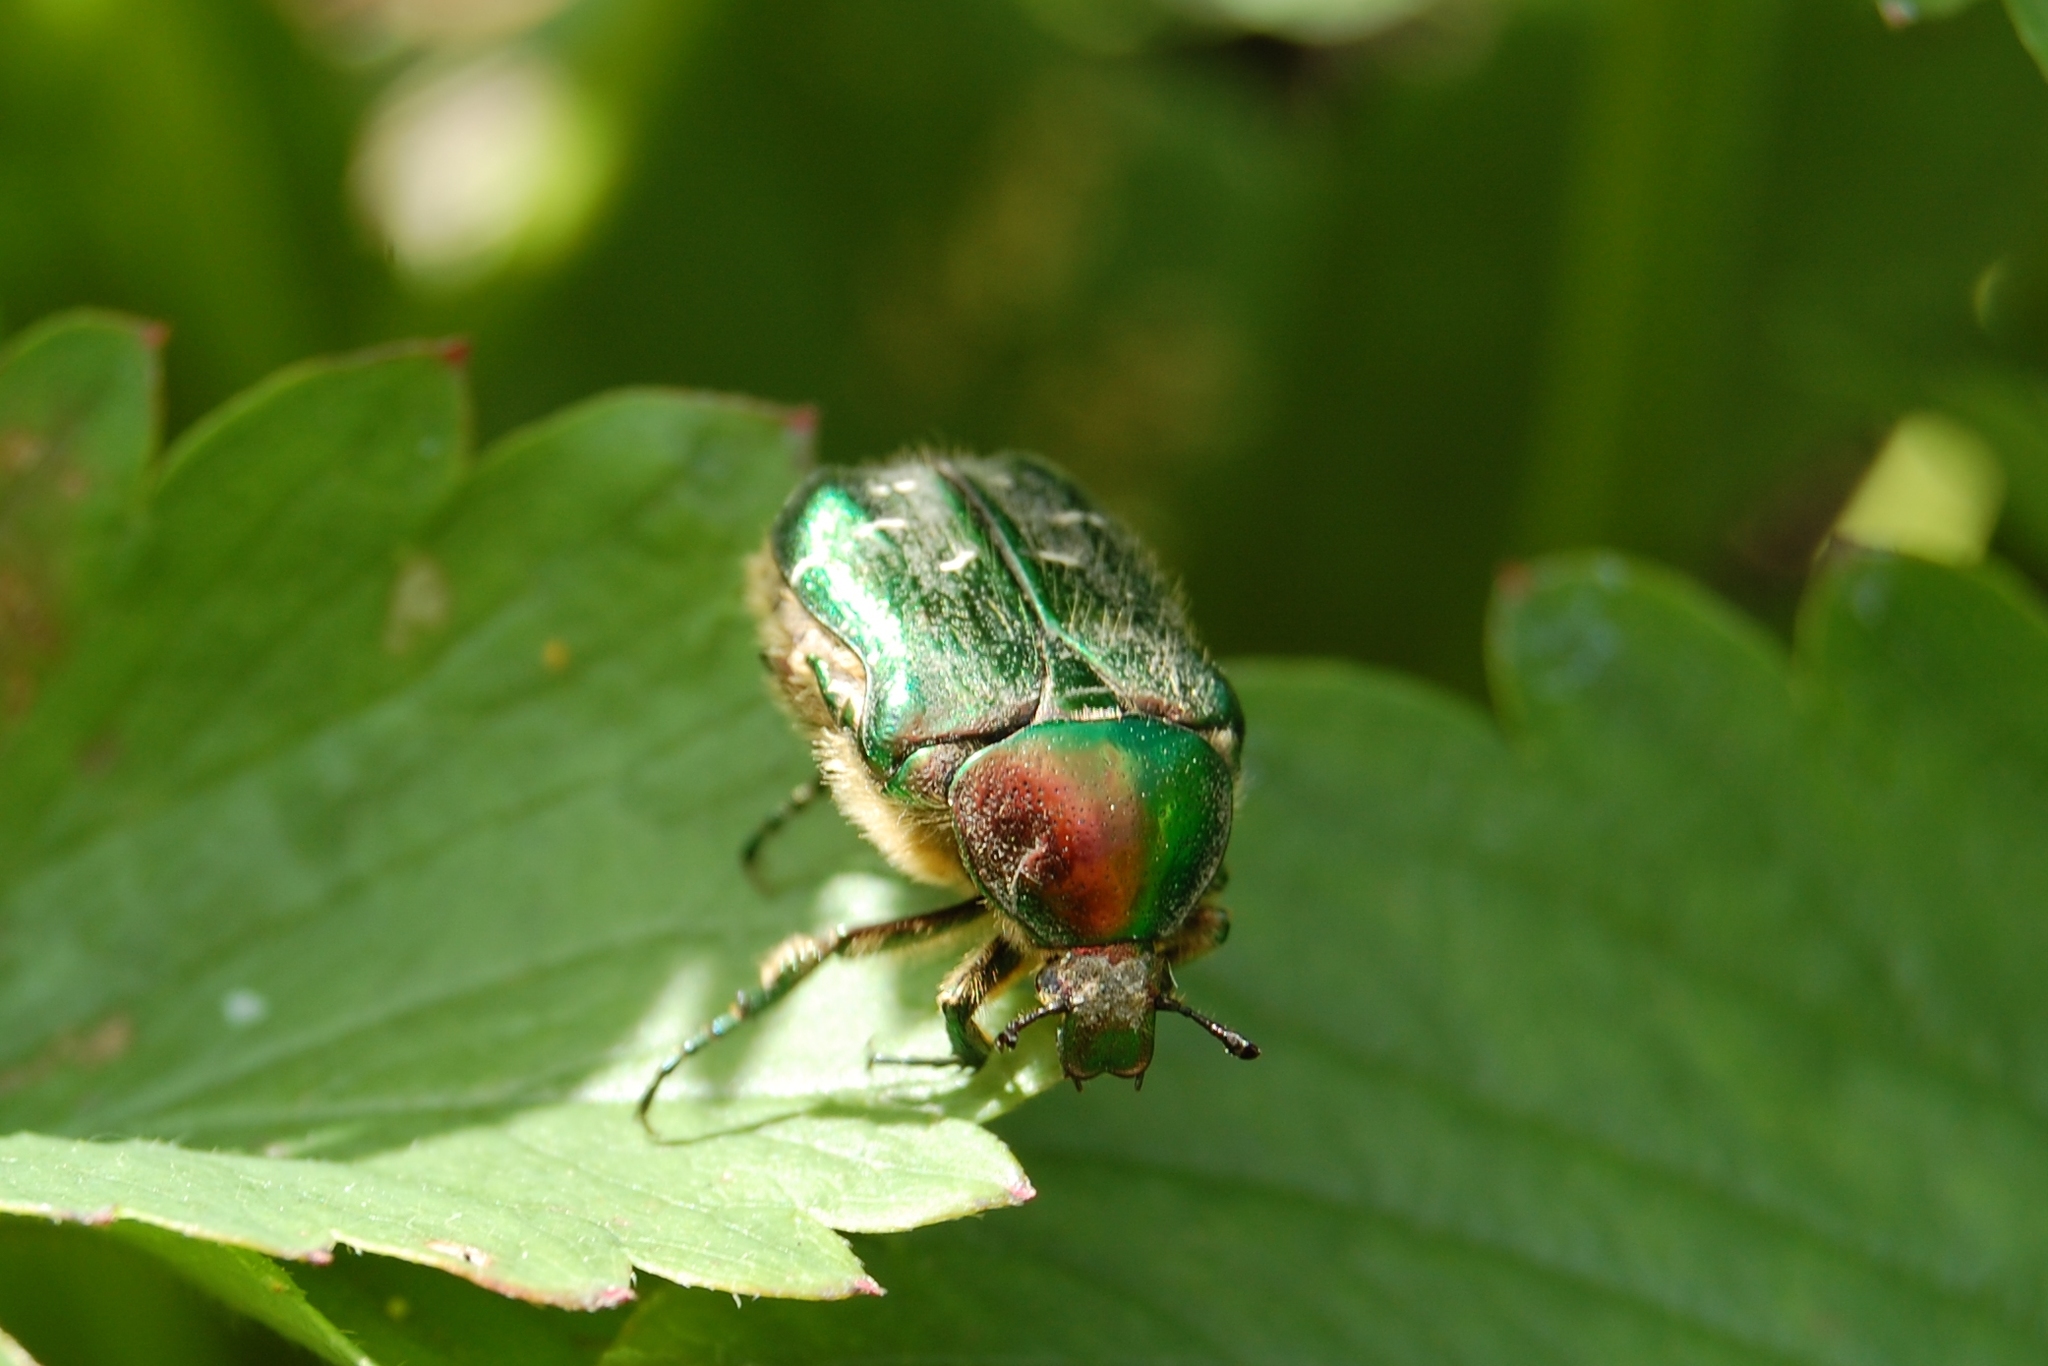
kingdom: Animalia
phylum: Arthropoda
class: Insecta
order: Coleoptera
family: Scarabaeidae
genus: Cetonia
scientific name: Cetonia aurata
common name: Rose chafer
